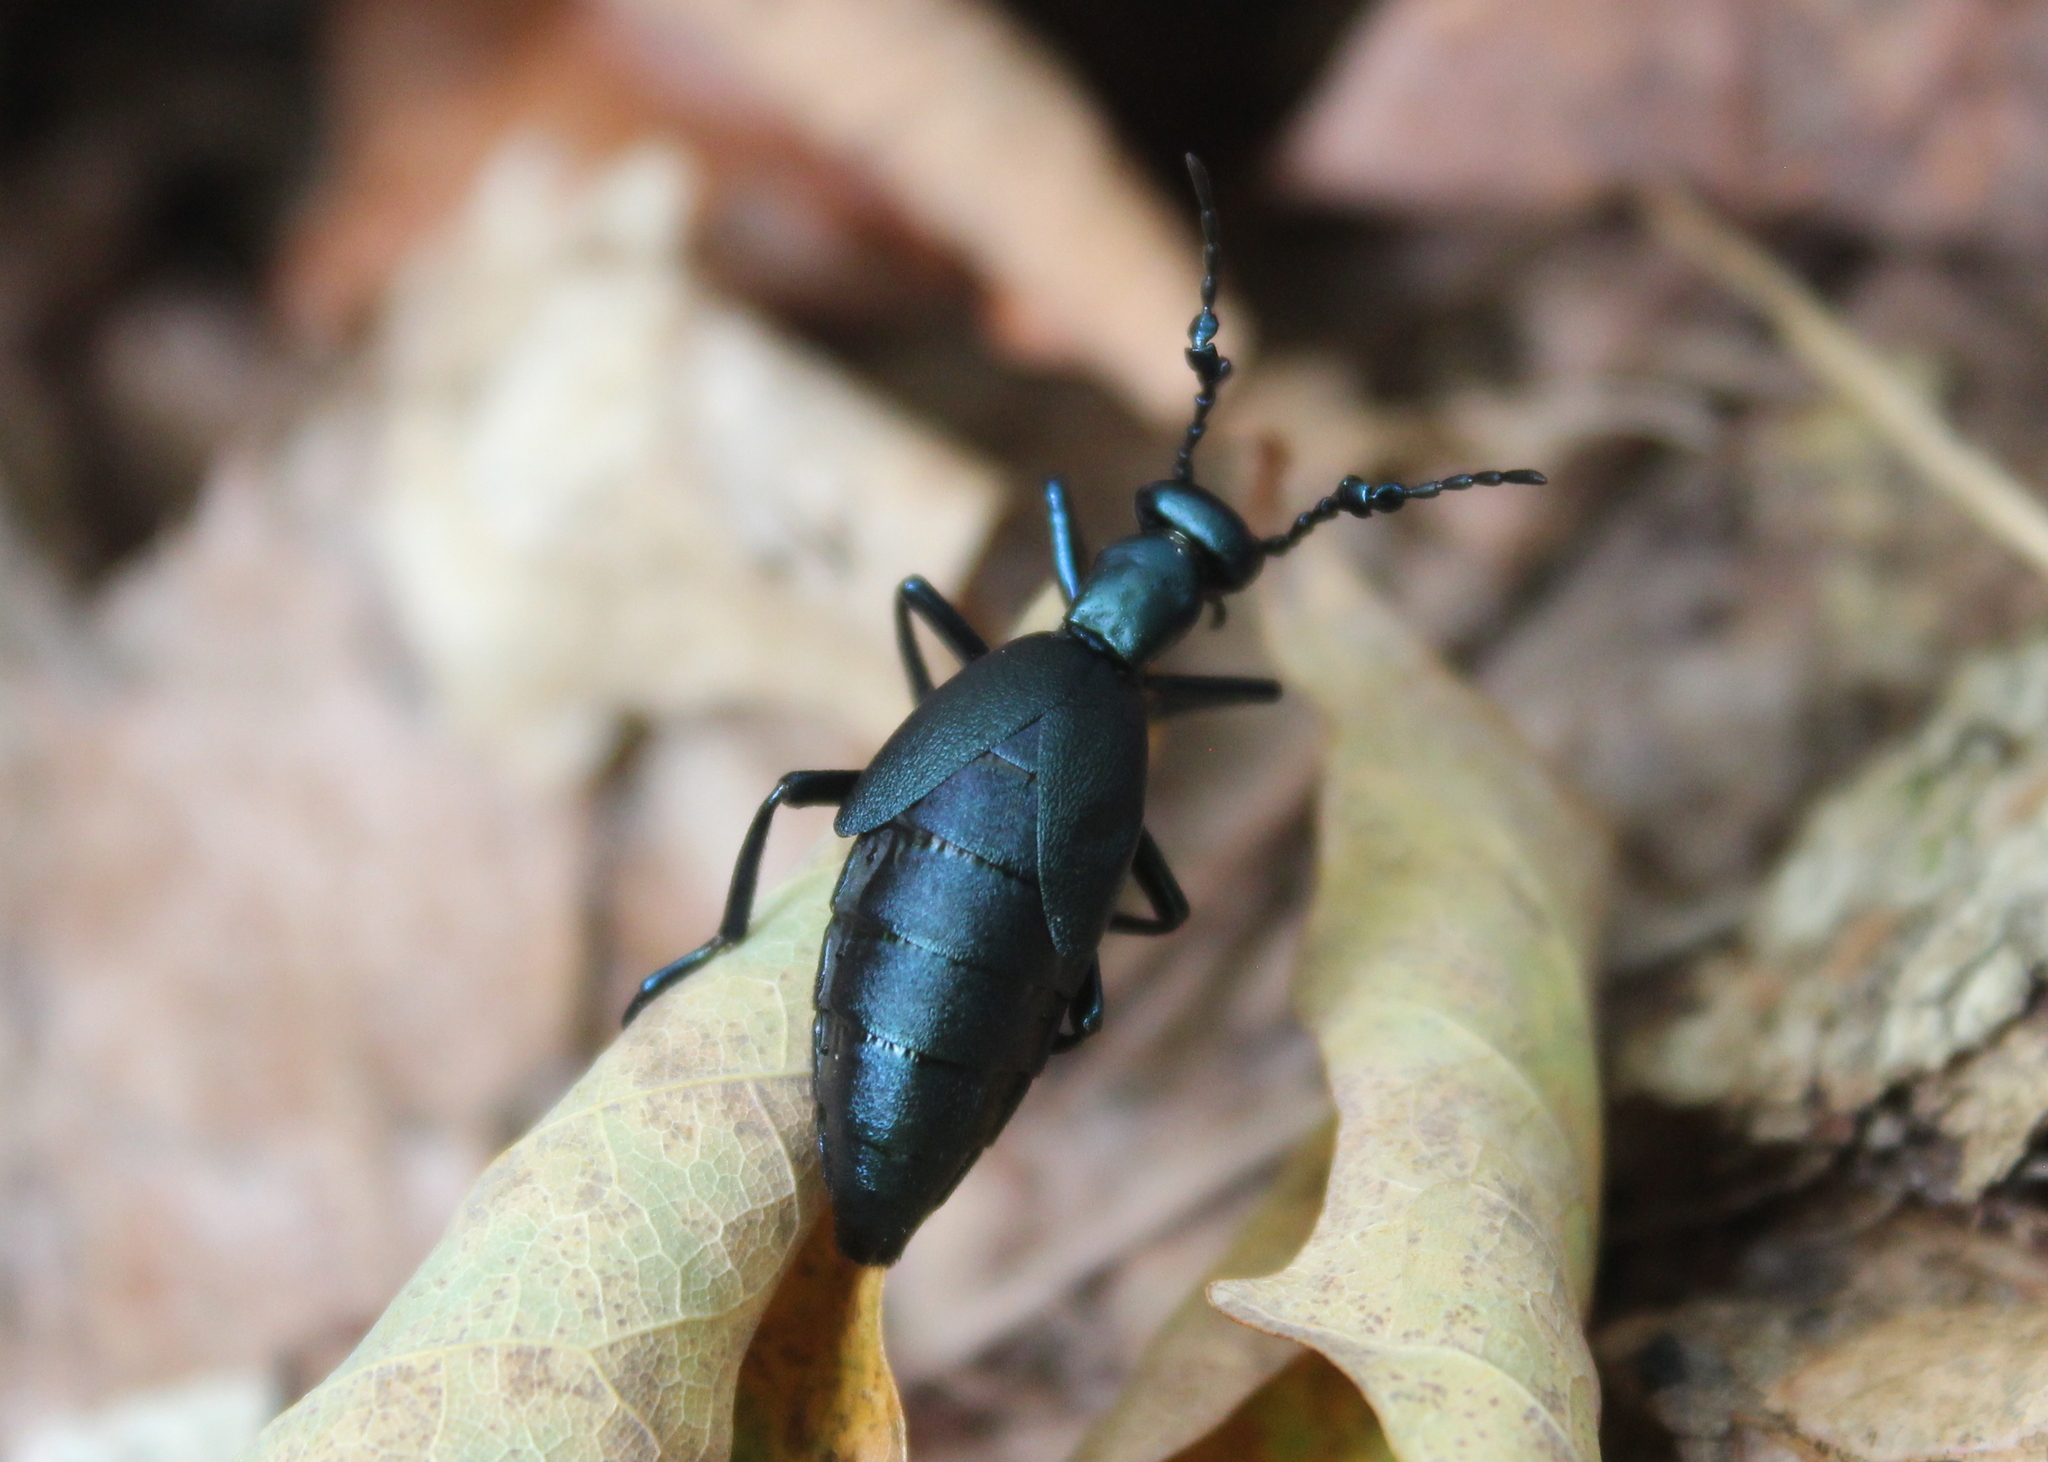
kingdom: Animalia
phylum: Arthropoda
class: Insecta
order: Coleoptera
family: Meloidae
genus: Meloe
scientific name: Meloe impressus
